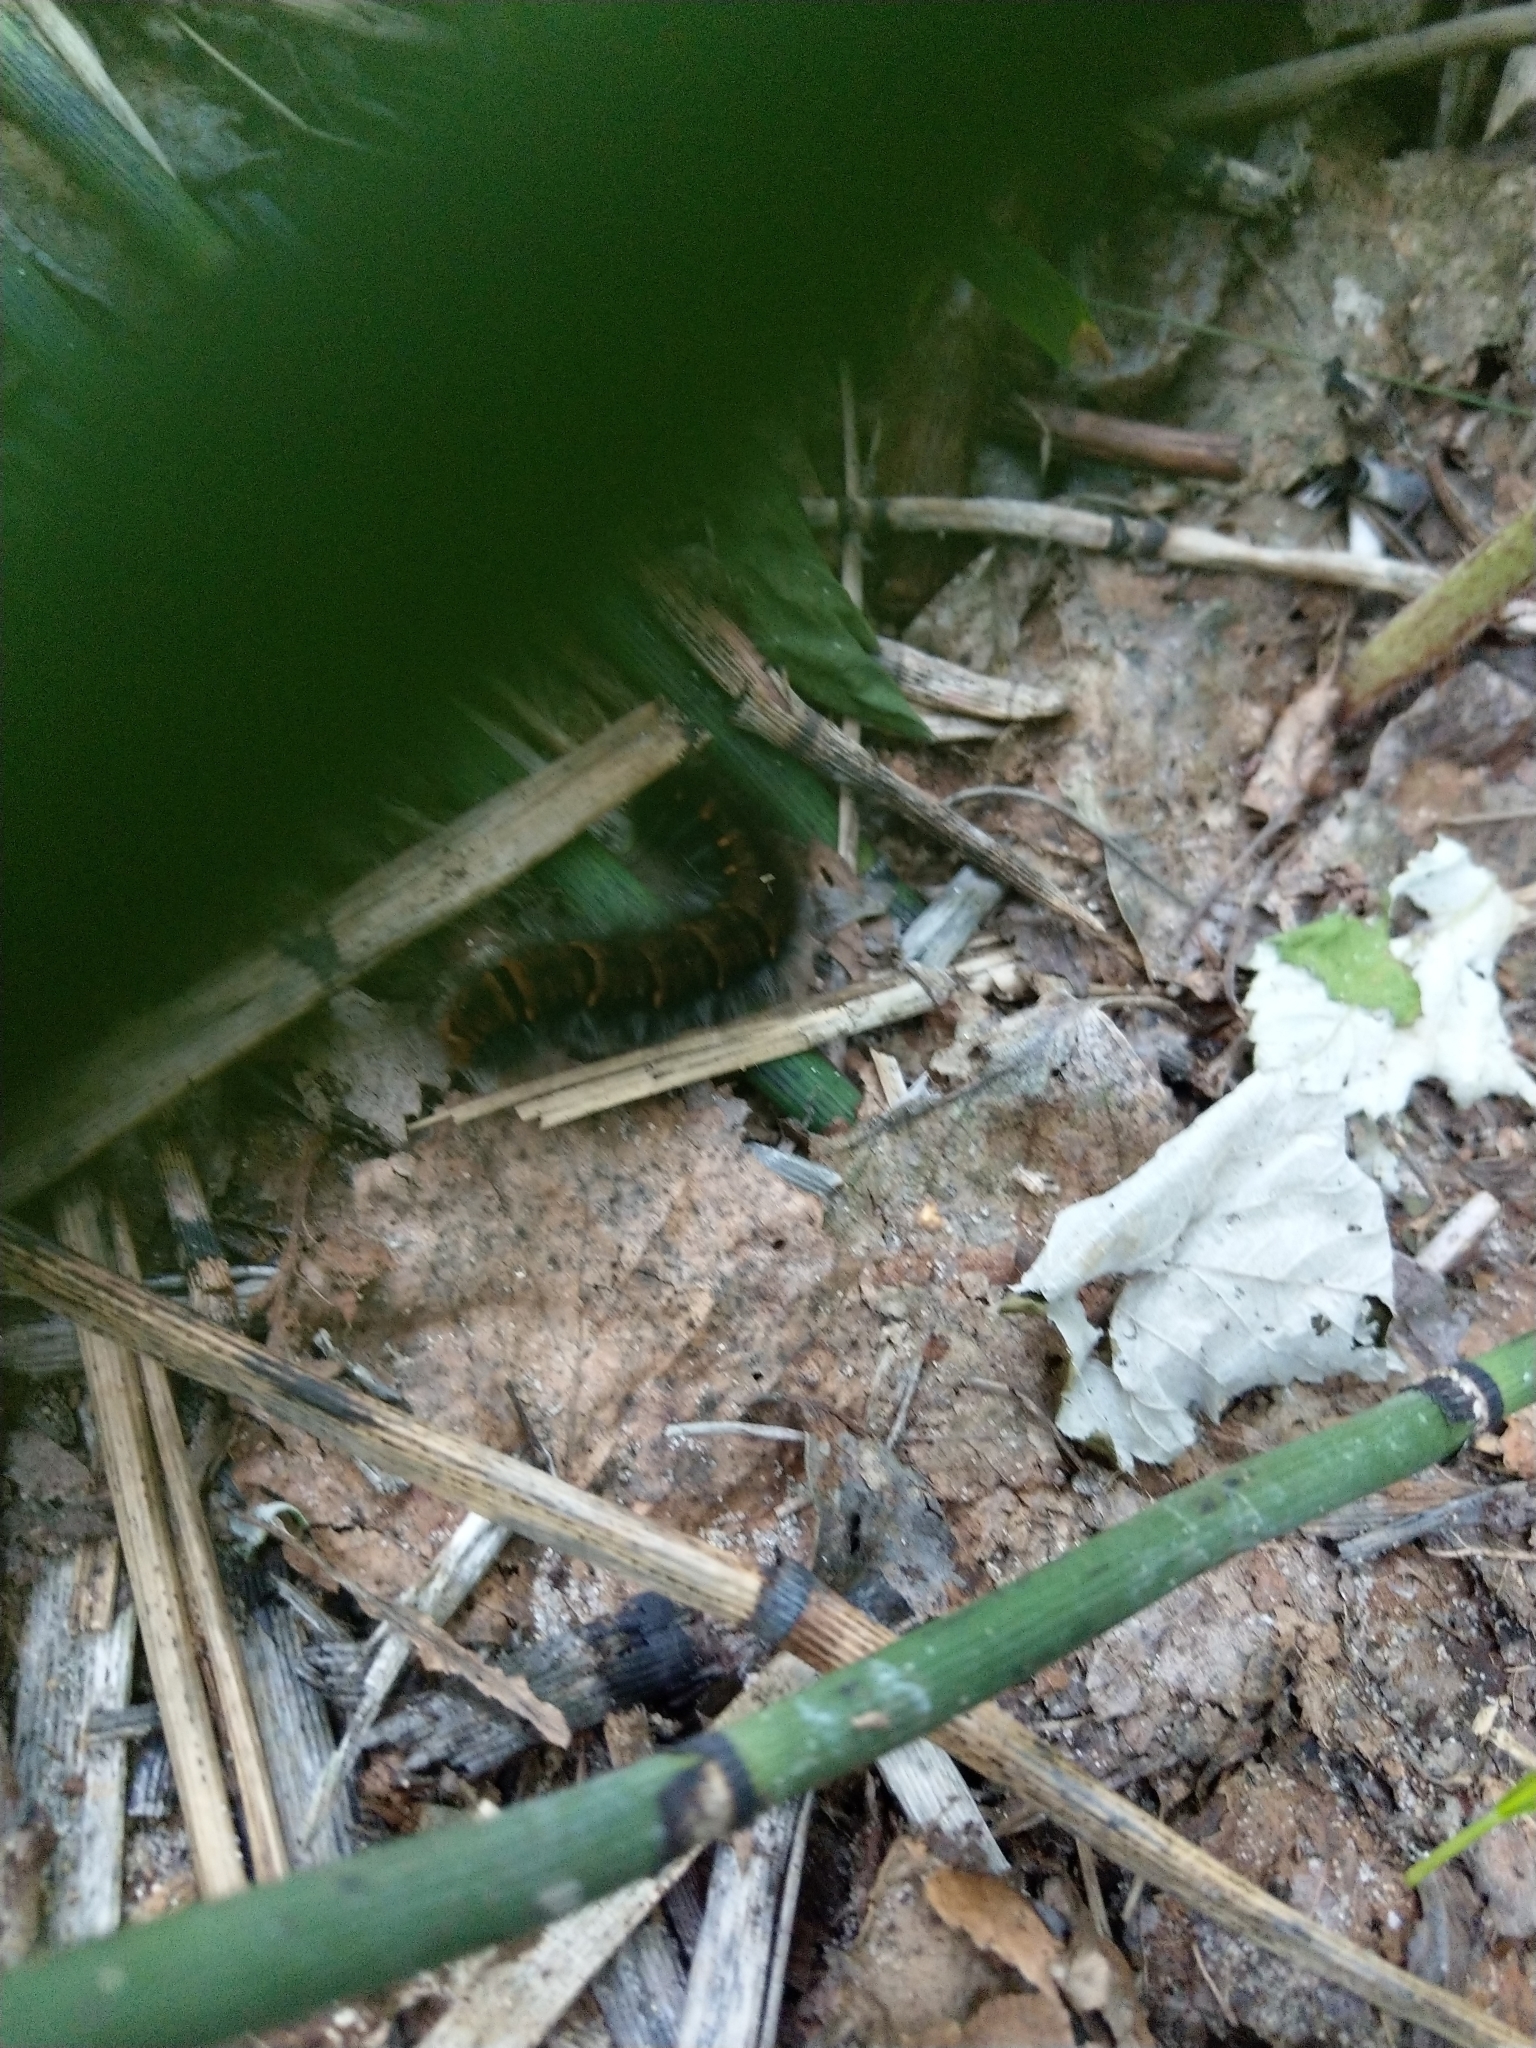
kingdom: Animalia
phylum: Arthropoda
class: Insecta
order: Lepidoptera
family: Lasiocampidae
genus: Macrothylacia
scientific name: Macrothylacia rubi
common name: Fox moth
